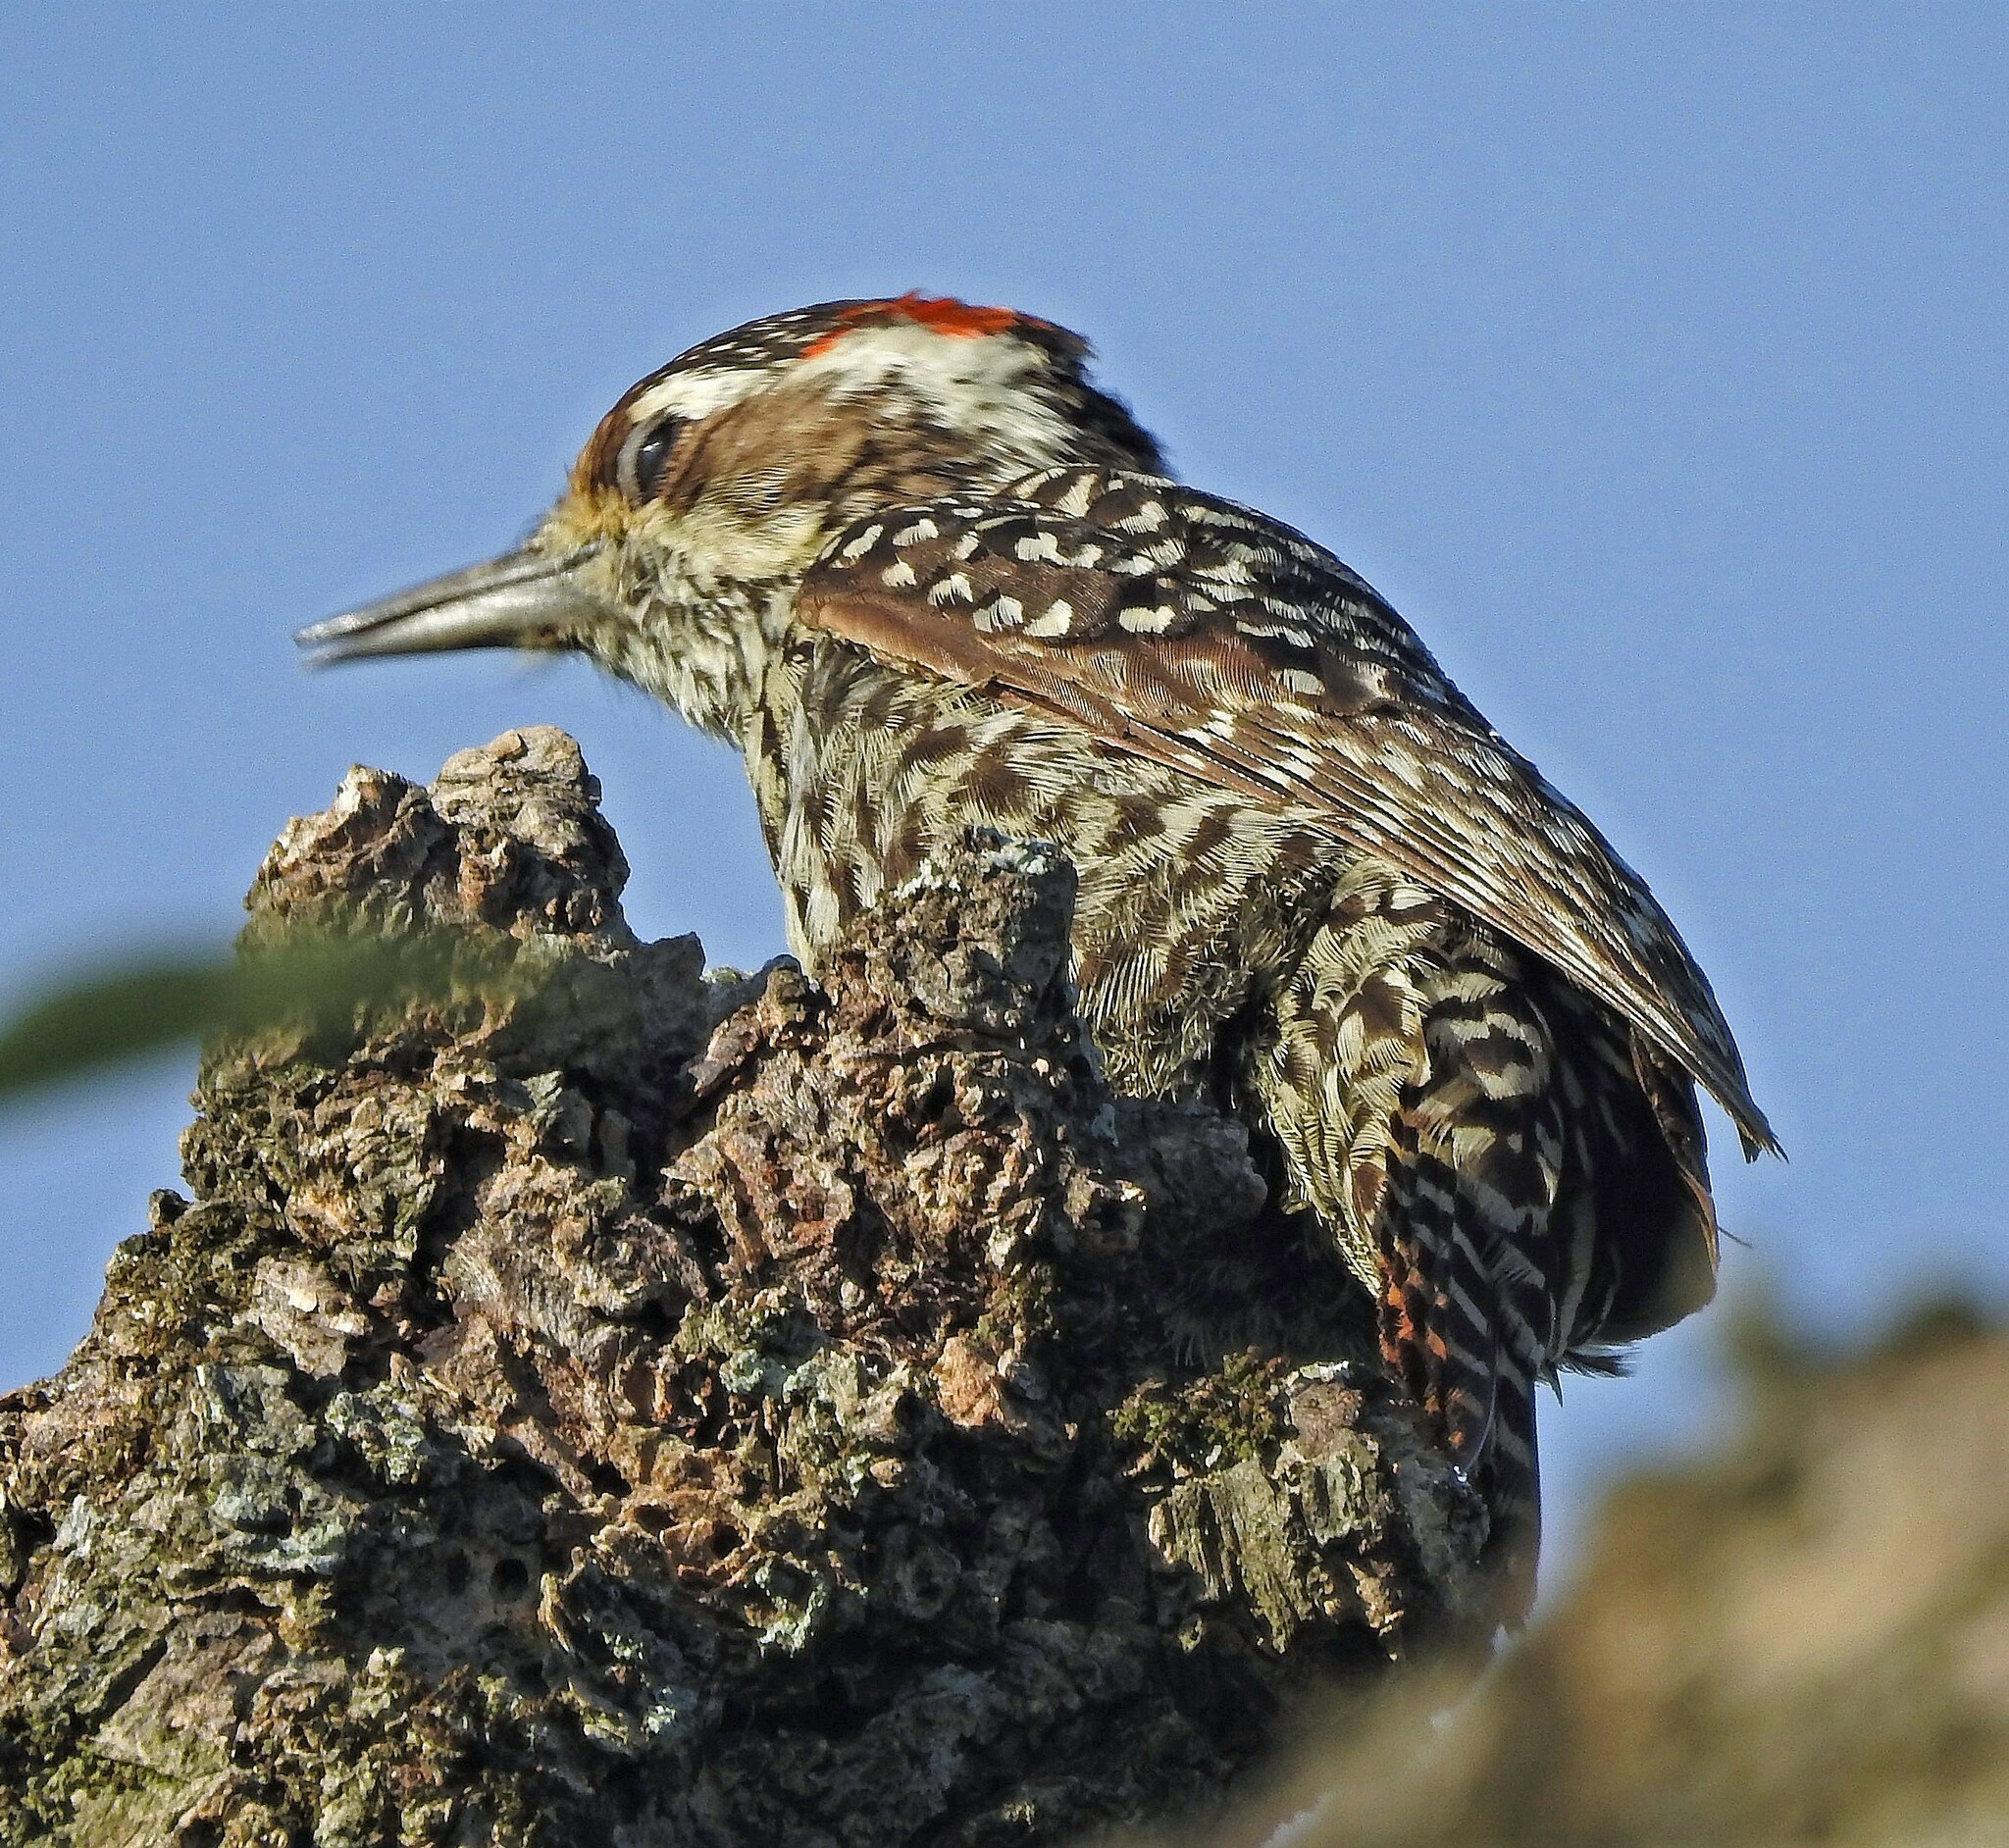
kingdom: Animalia
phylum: Chordata
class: Aves
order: Piciformes
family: Picidae
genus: Veniliornis
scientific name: Veniliornis mixtus
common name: Checkered woodpecker
